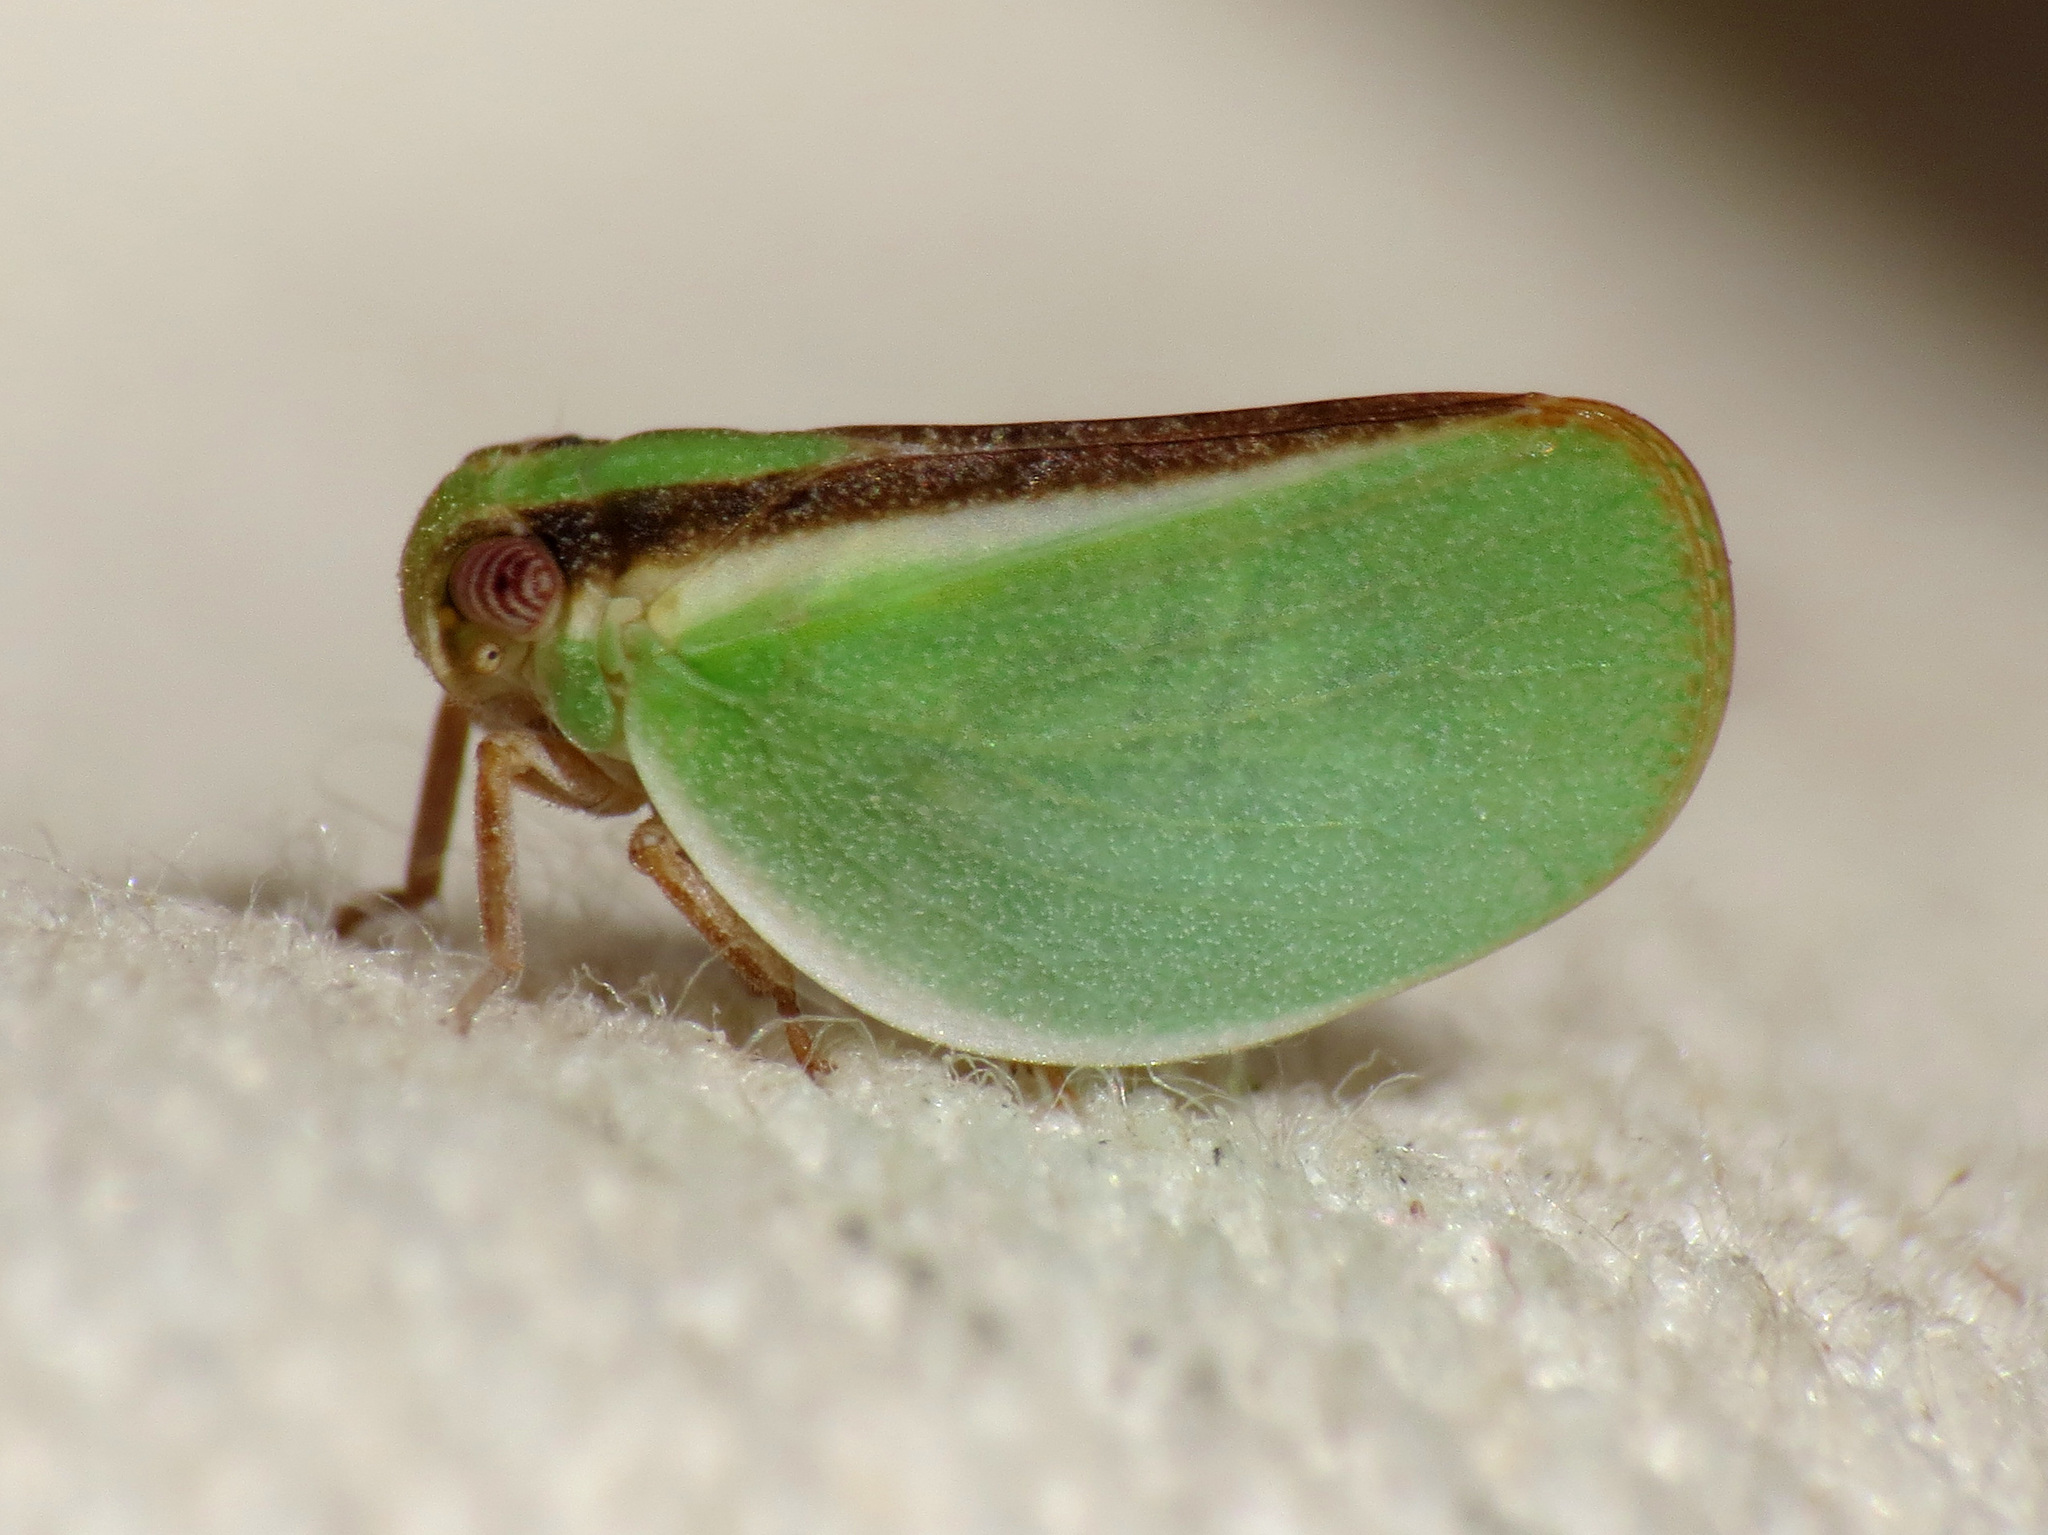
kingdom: Animalia
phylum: Arthropoda
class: Insecta
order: Hemiptera
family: Acanaloniidae
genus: Acanalonia
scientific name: Acanalonia fasciata
